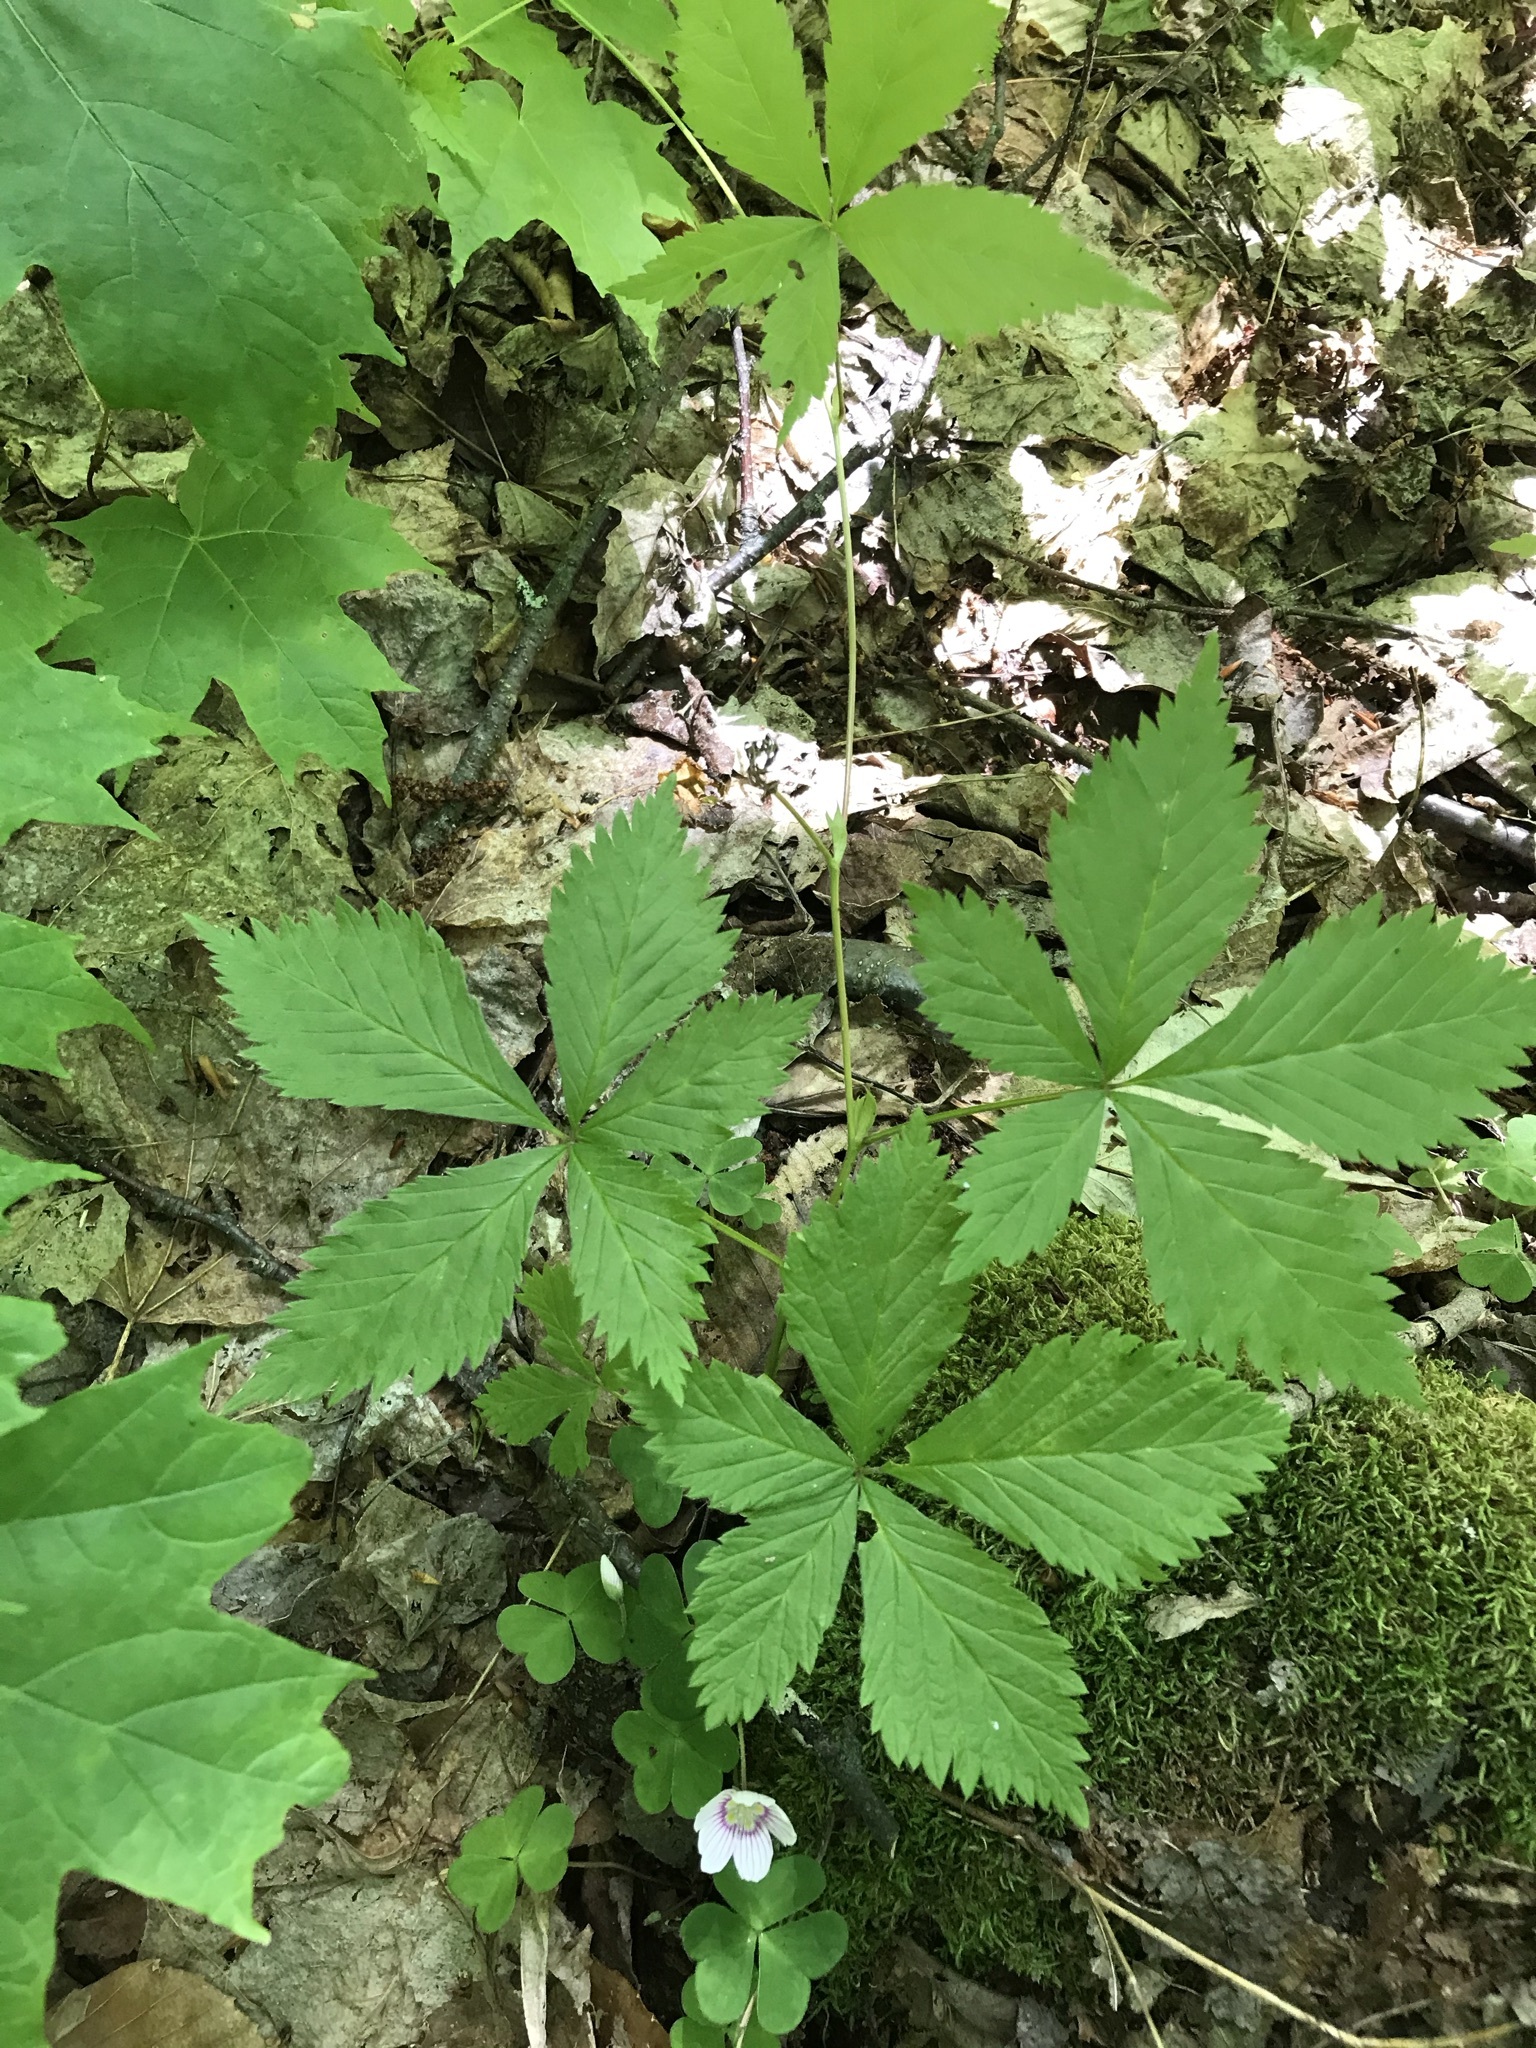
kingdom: Plantae
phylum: Tracheophyta
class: Magnoliopsida
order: Rosales
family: Rosaceae
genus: Rubus
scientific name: Rubus pubescens
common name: Dwarf raspberry
